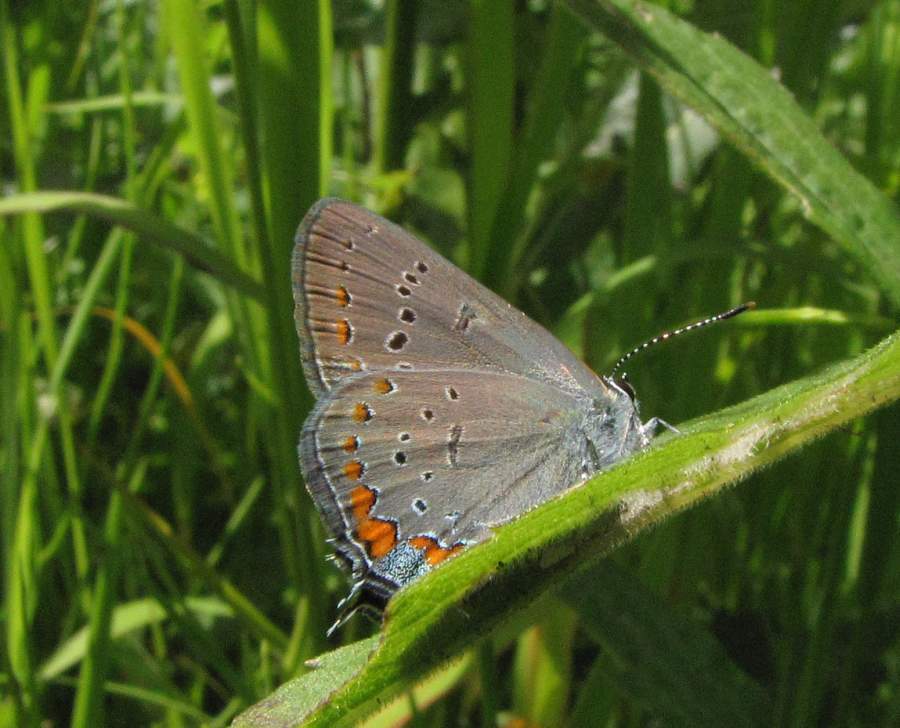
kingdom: Animalia
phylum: Arthropoda
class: Insecta
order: Lepidoptera
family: Lycaenidae
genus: Strymon
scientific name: Strymon acadica
